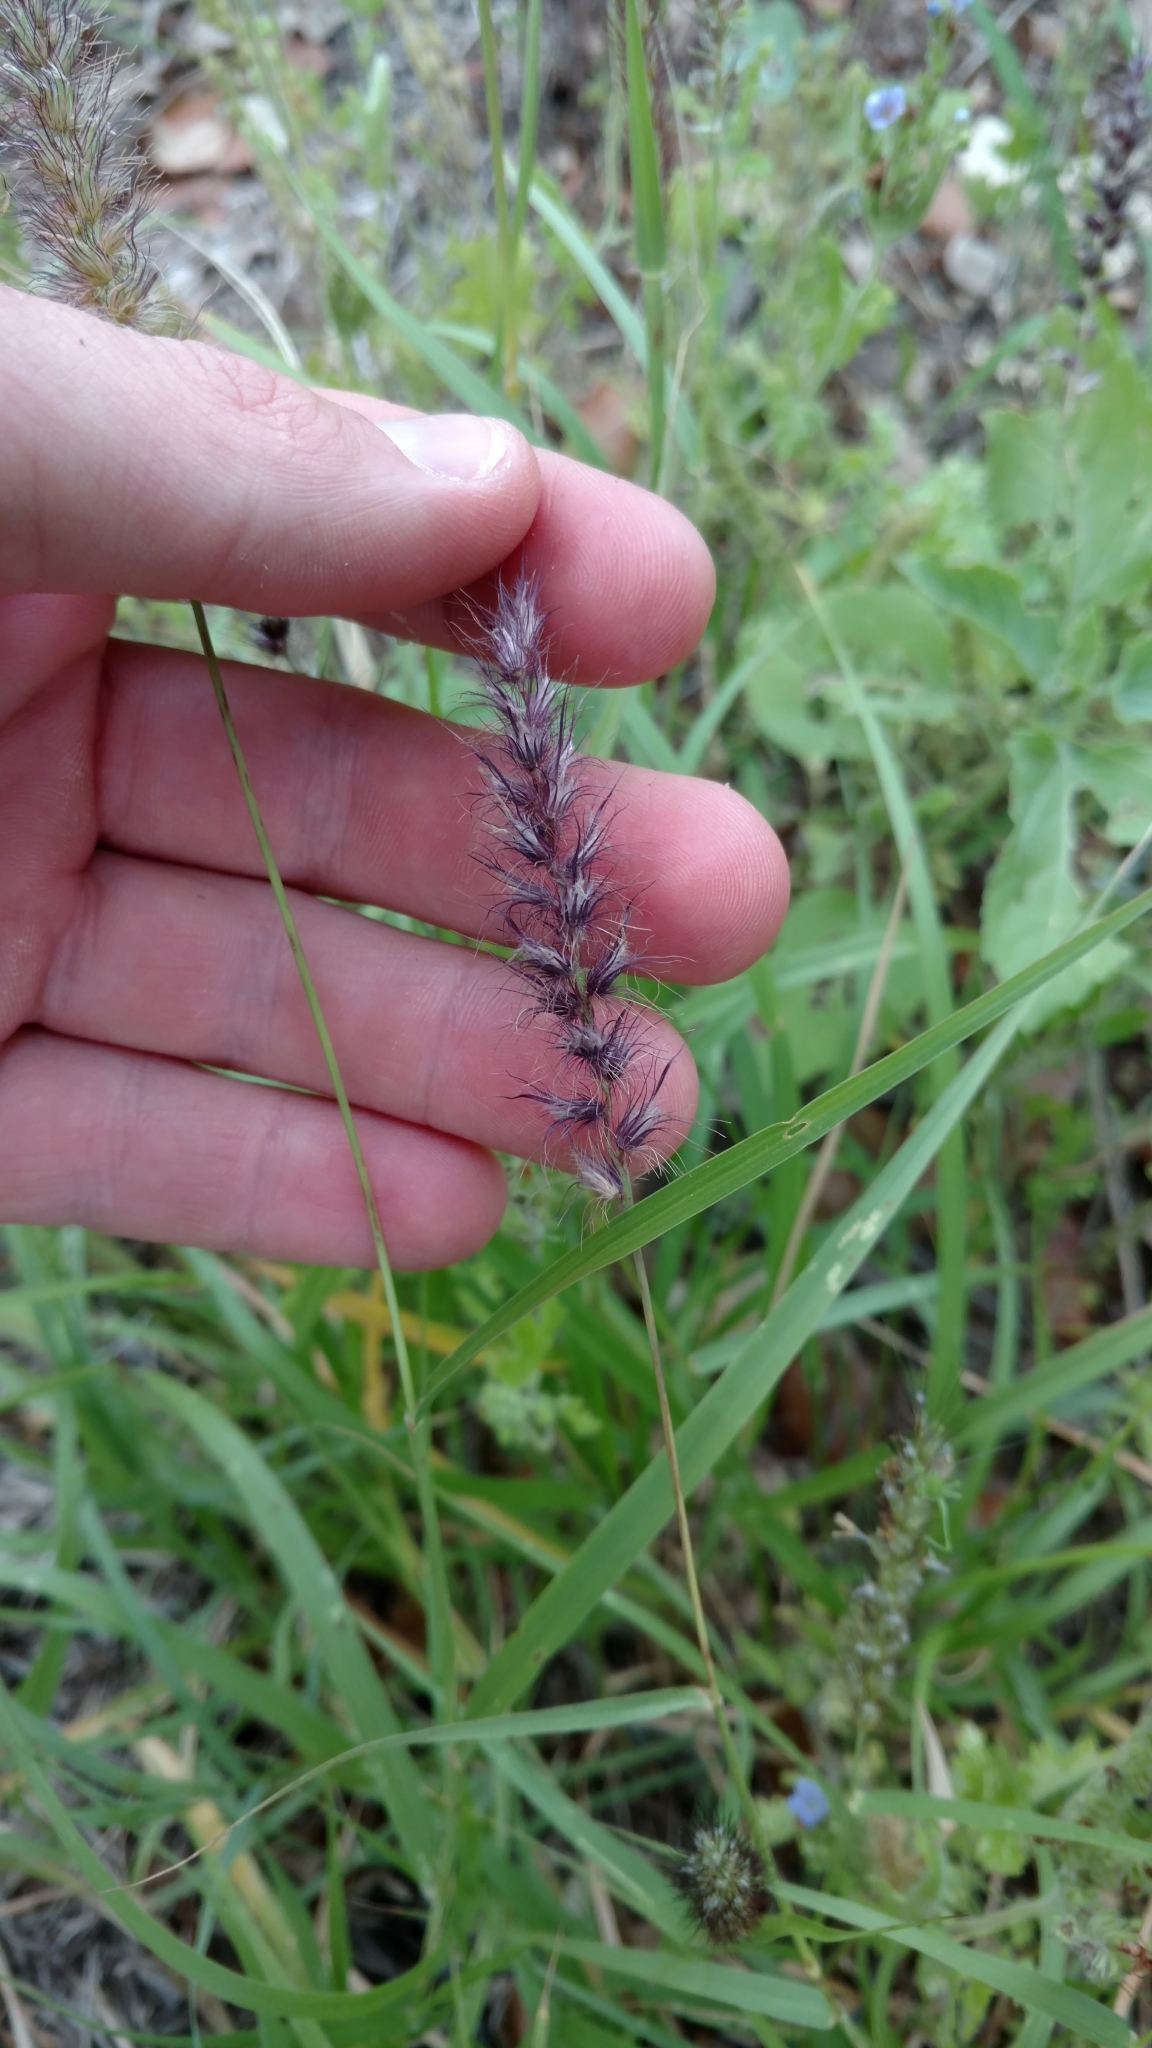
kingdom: Plantae
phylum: Tracheophyta
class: Liliopsida
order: Poales
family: Poaceae
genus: Cenchrus
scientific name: Cenchrus ciliaris
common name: Buffelgrass
